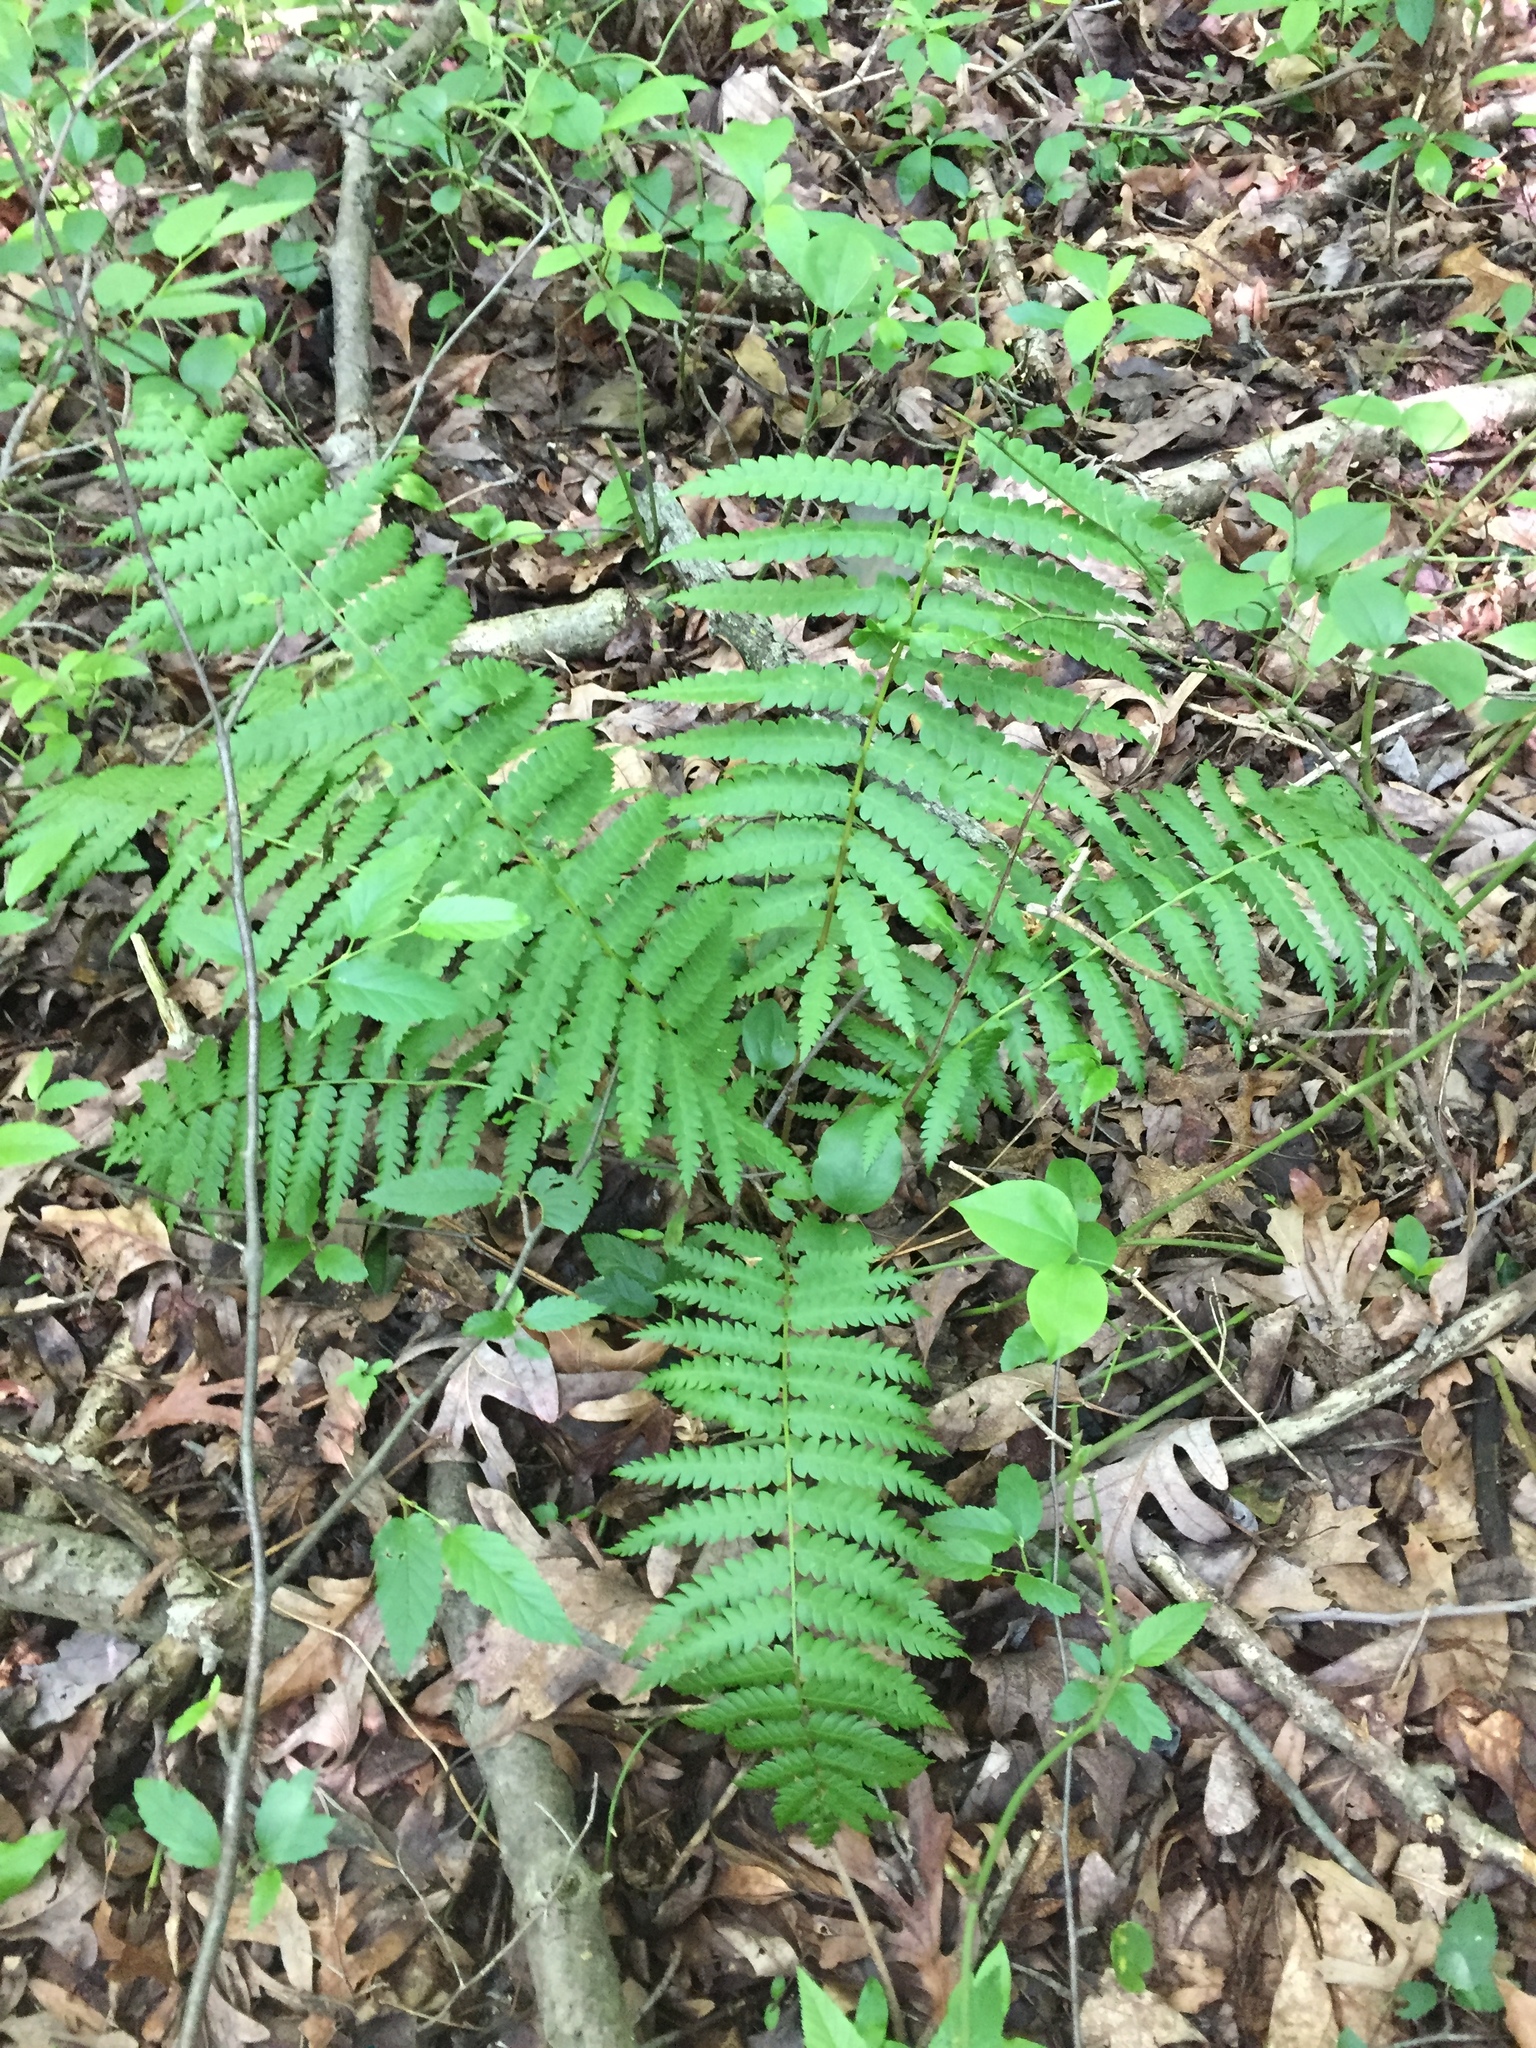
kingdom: Plantae
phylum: Tracheophyta
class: Polypodiopsida
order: Osmundales
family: Osmundaceae
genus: Osmundastrum
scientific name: Osmundastrum cinnamomeum
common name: Cinnamon fern
